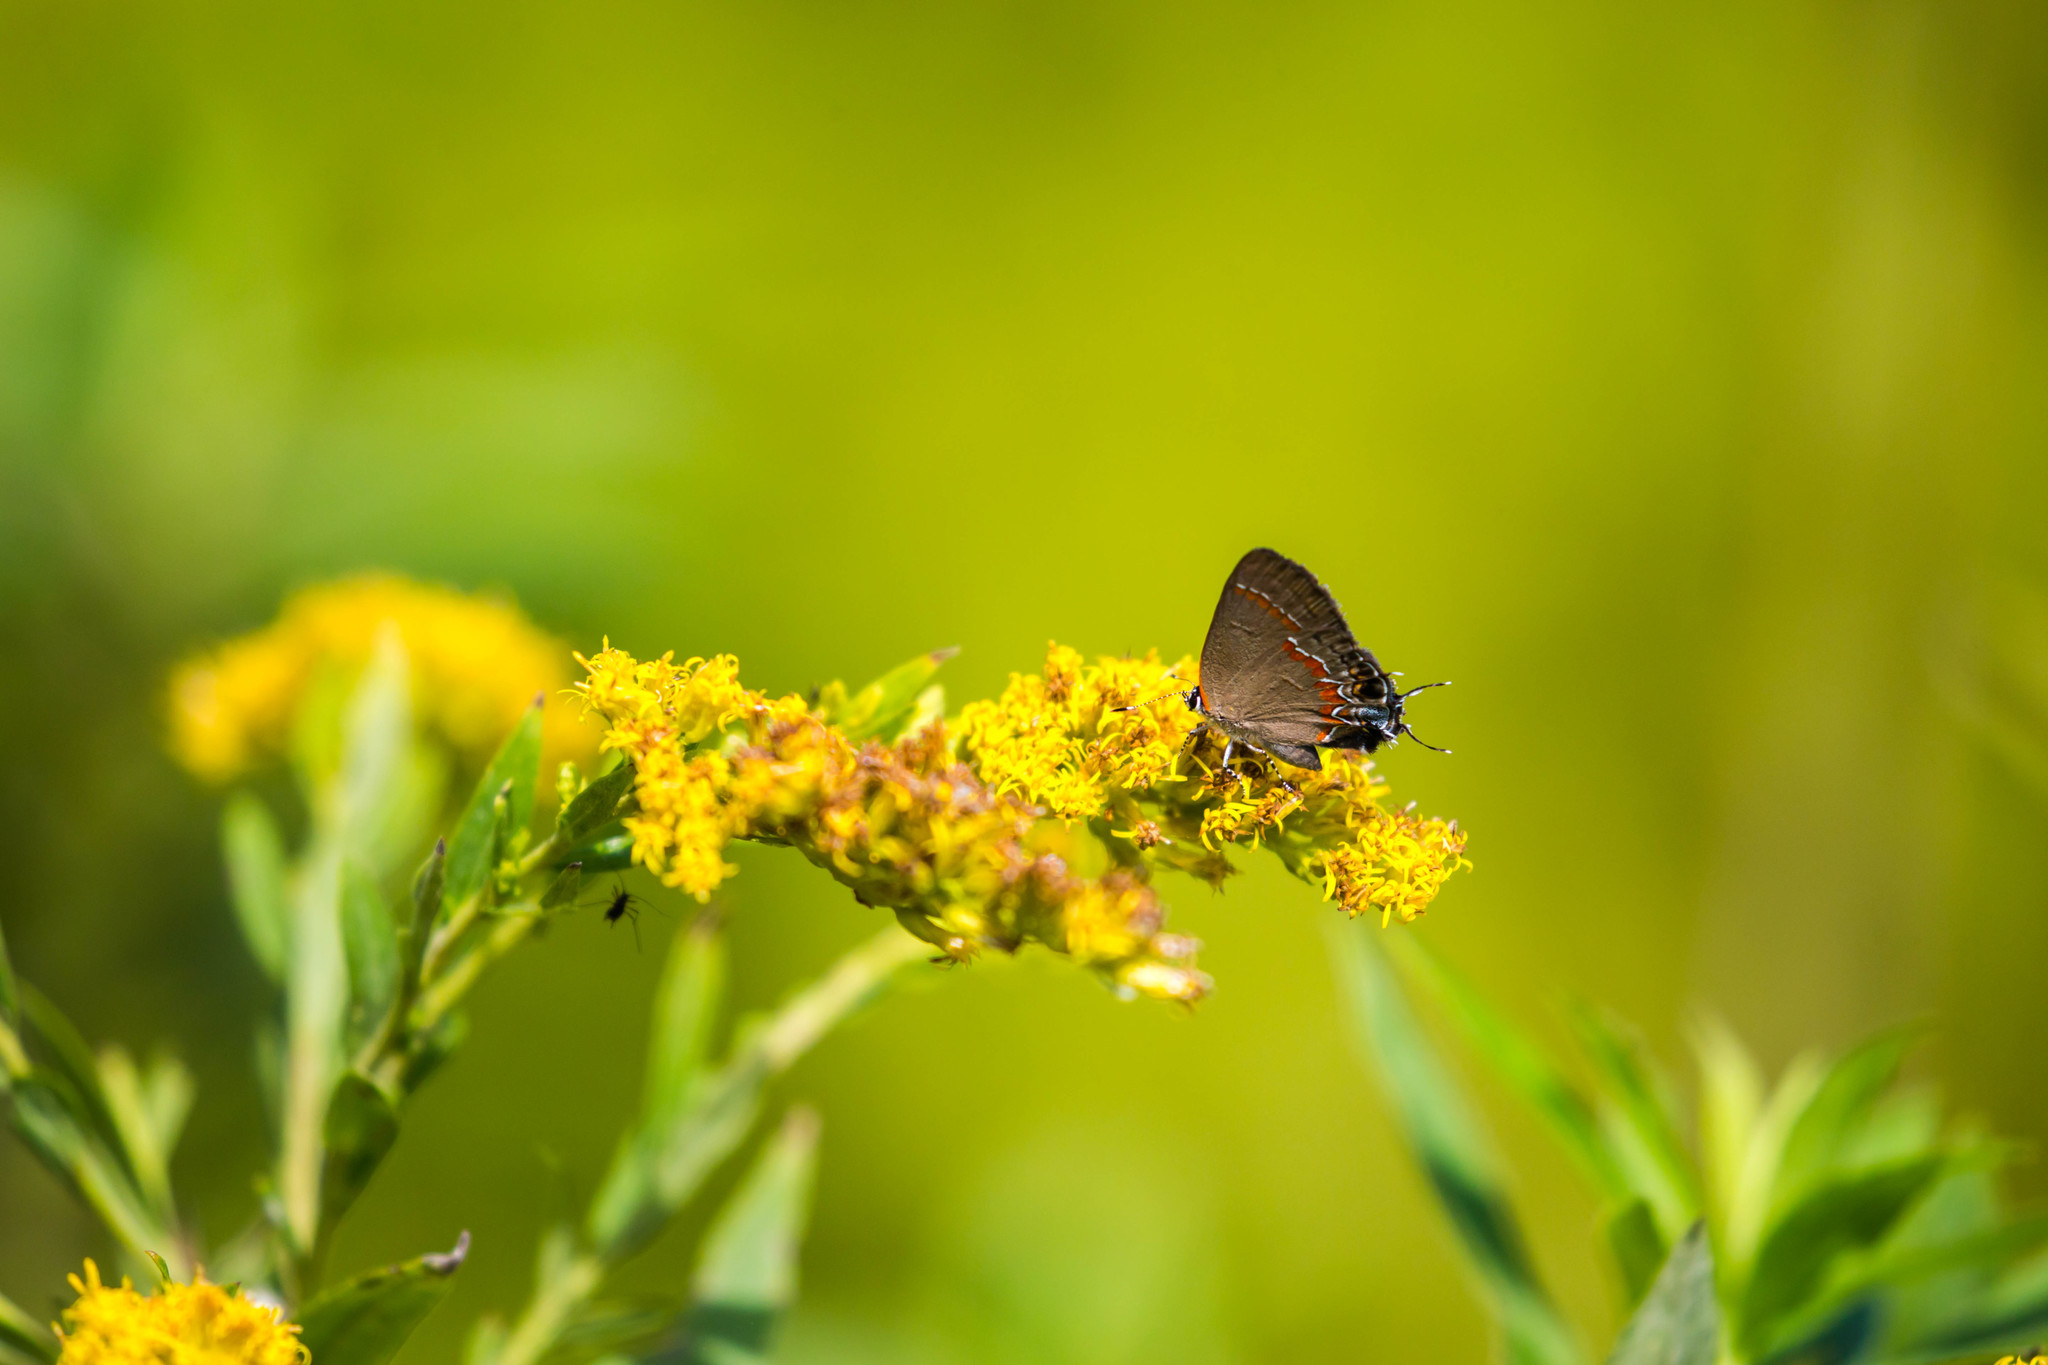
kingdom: Animalia
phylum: Arthropoda
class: Insecta
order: Lepidoptera
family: Lycaenidae
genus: Calycopis
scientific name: Calycopis cecrops
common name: Red-banded hairstreak
